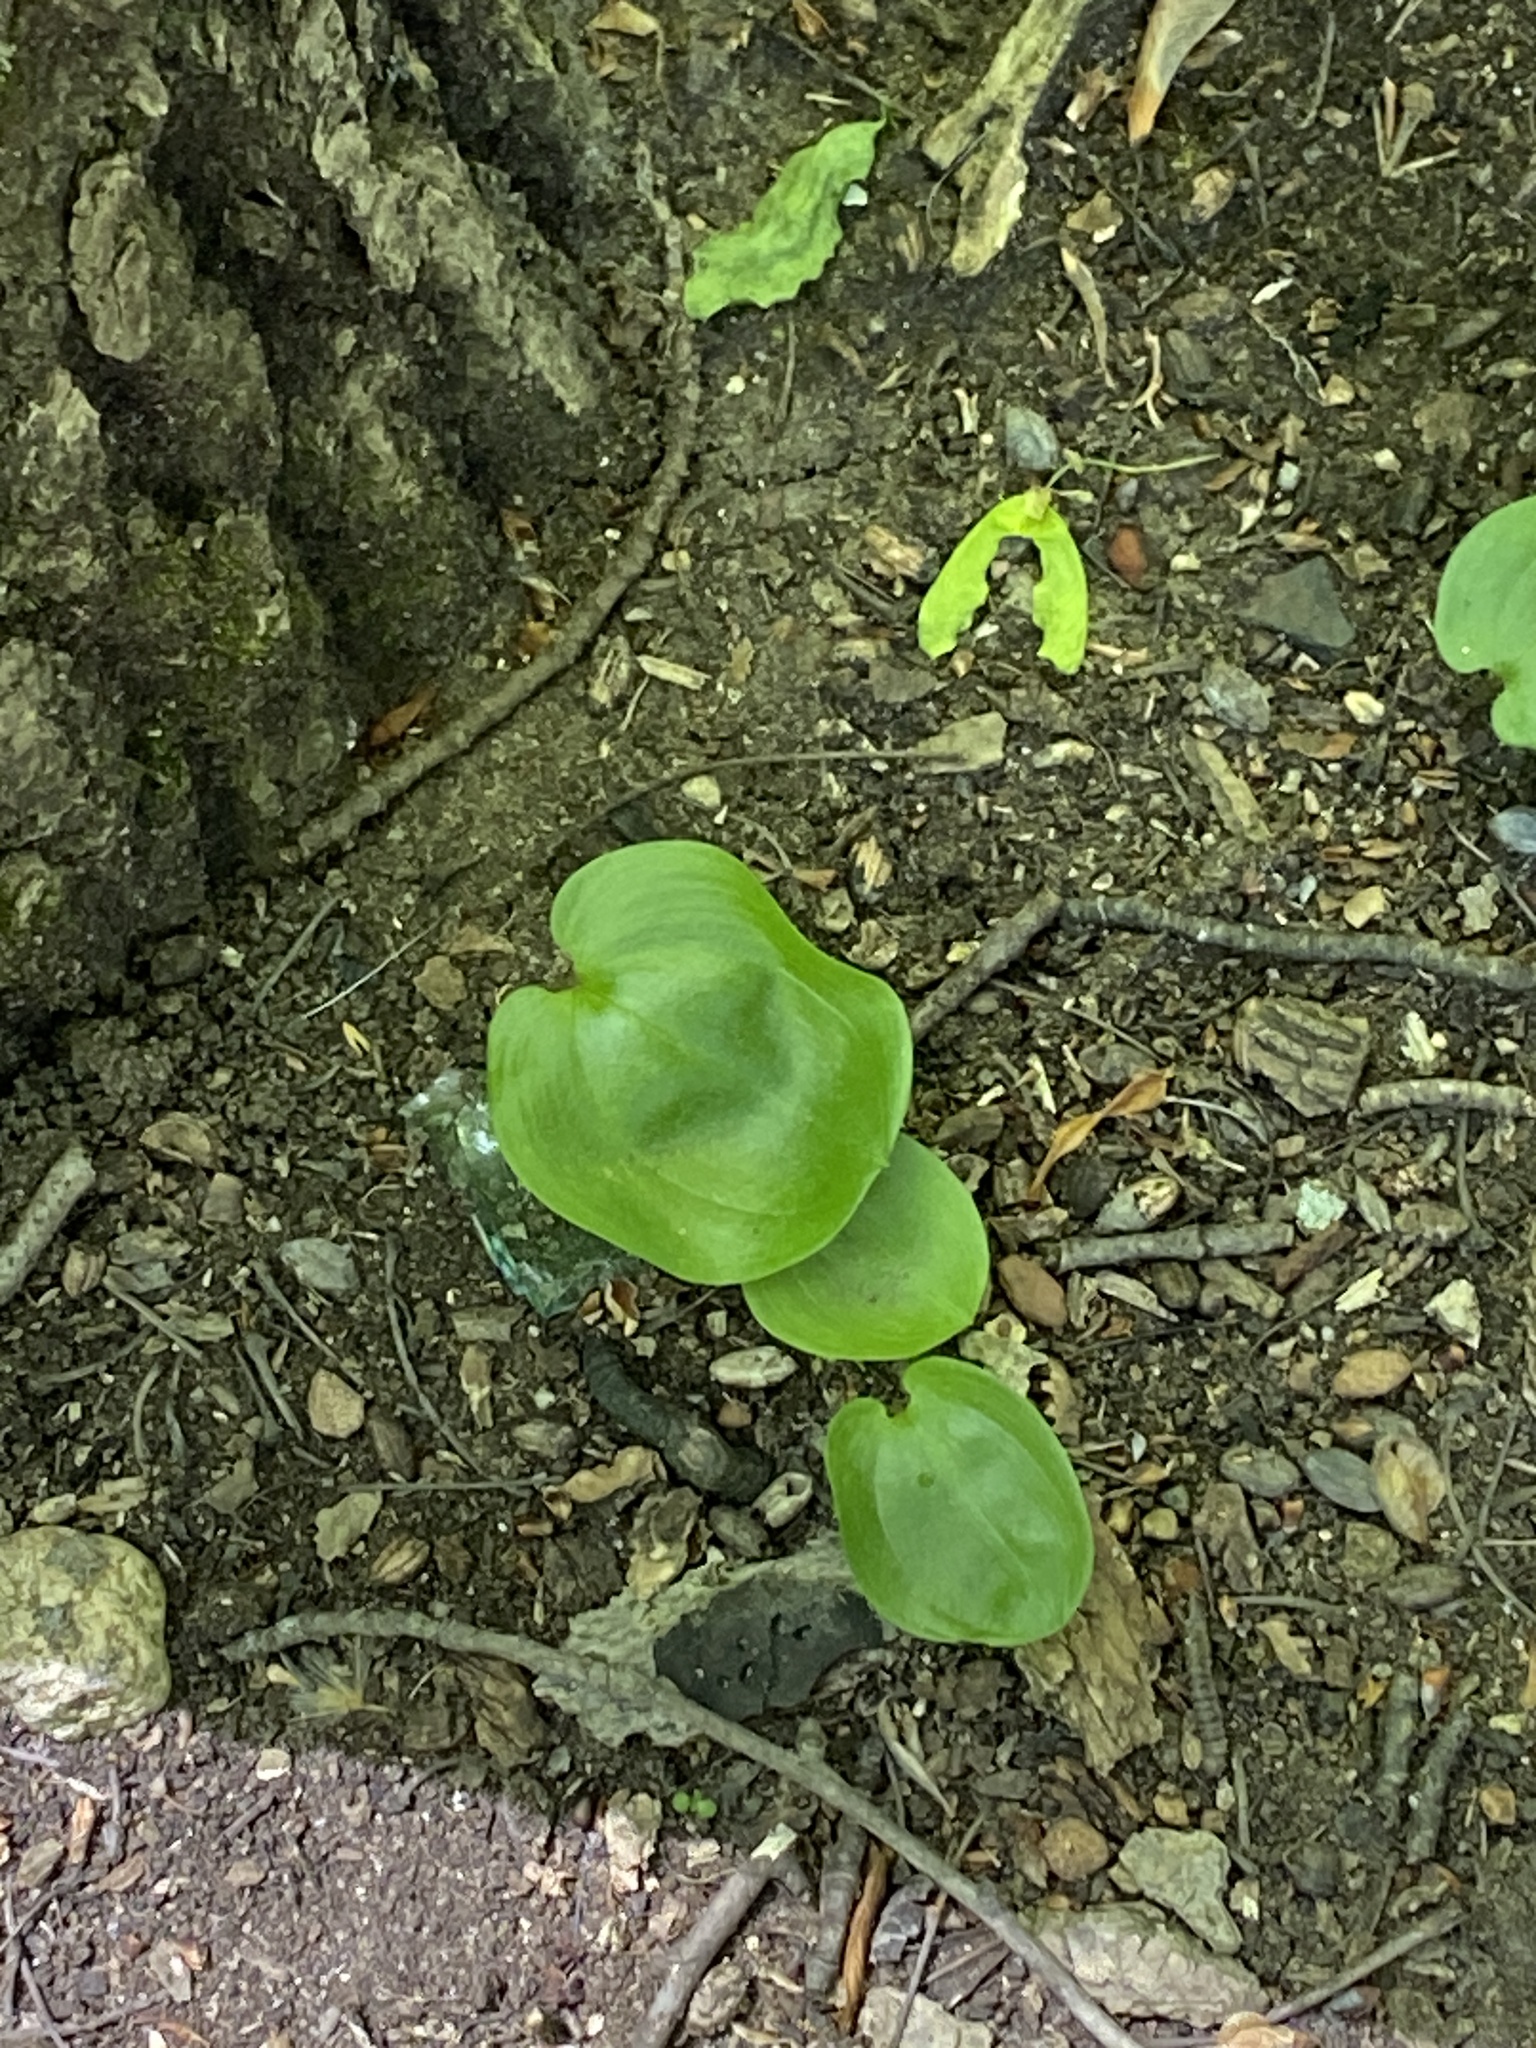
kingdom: Plantae
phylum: Tracheophyta
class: Liliopsida
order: Asparagales
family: Asparagaceae
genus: Maianthemum
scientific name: Maianthemum canadense
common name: False lily-of-the-valley
